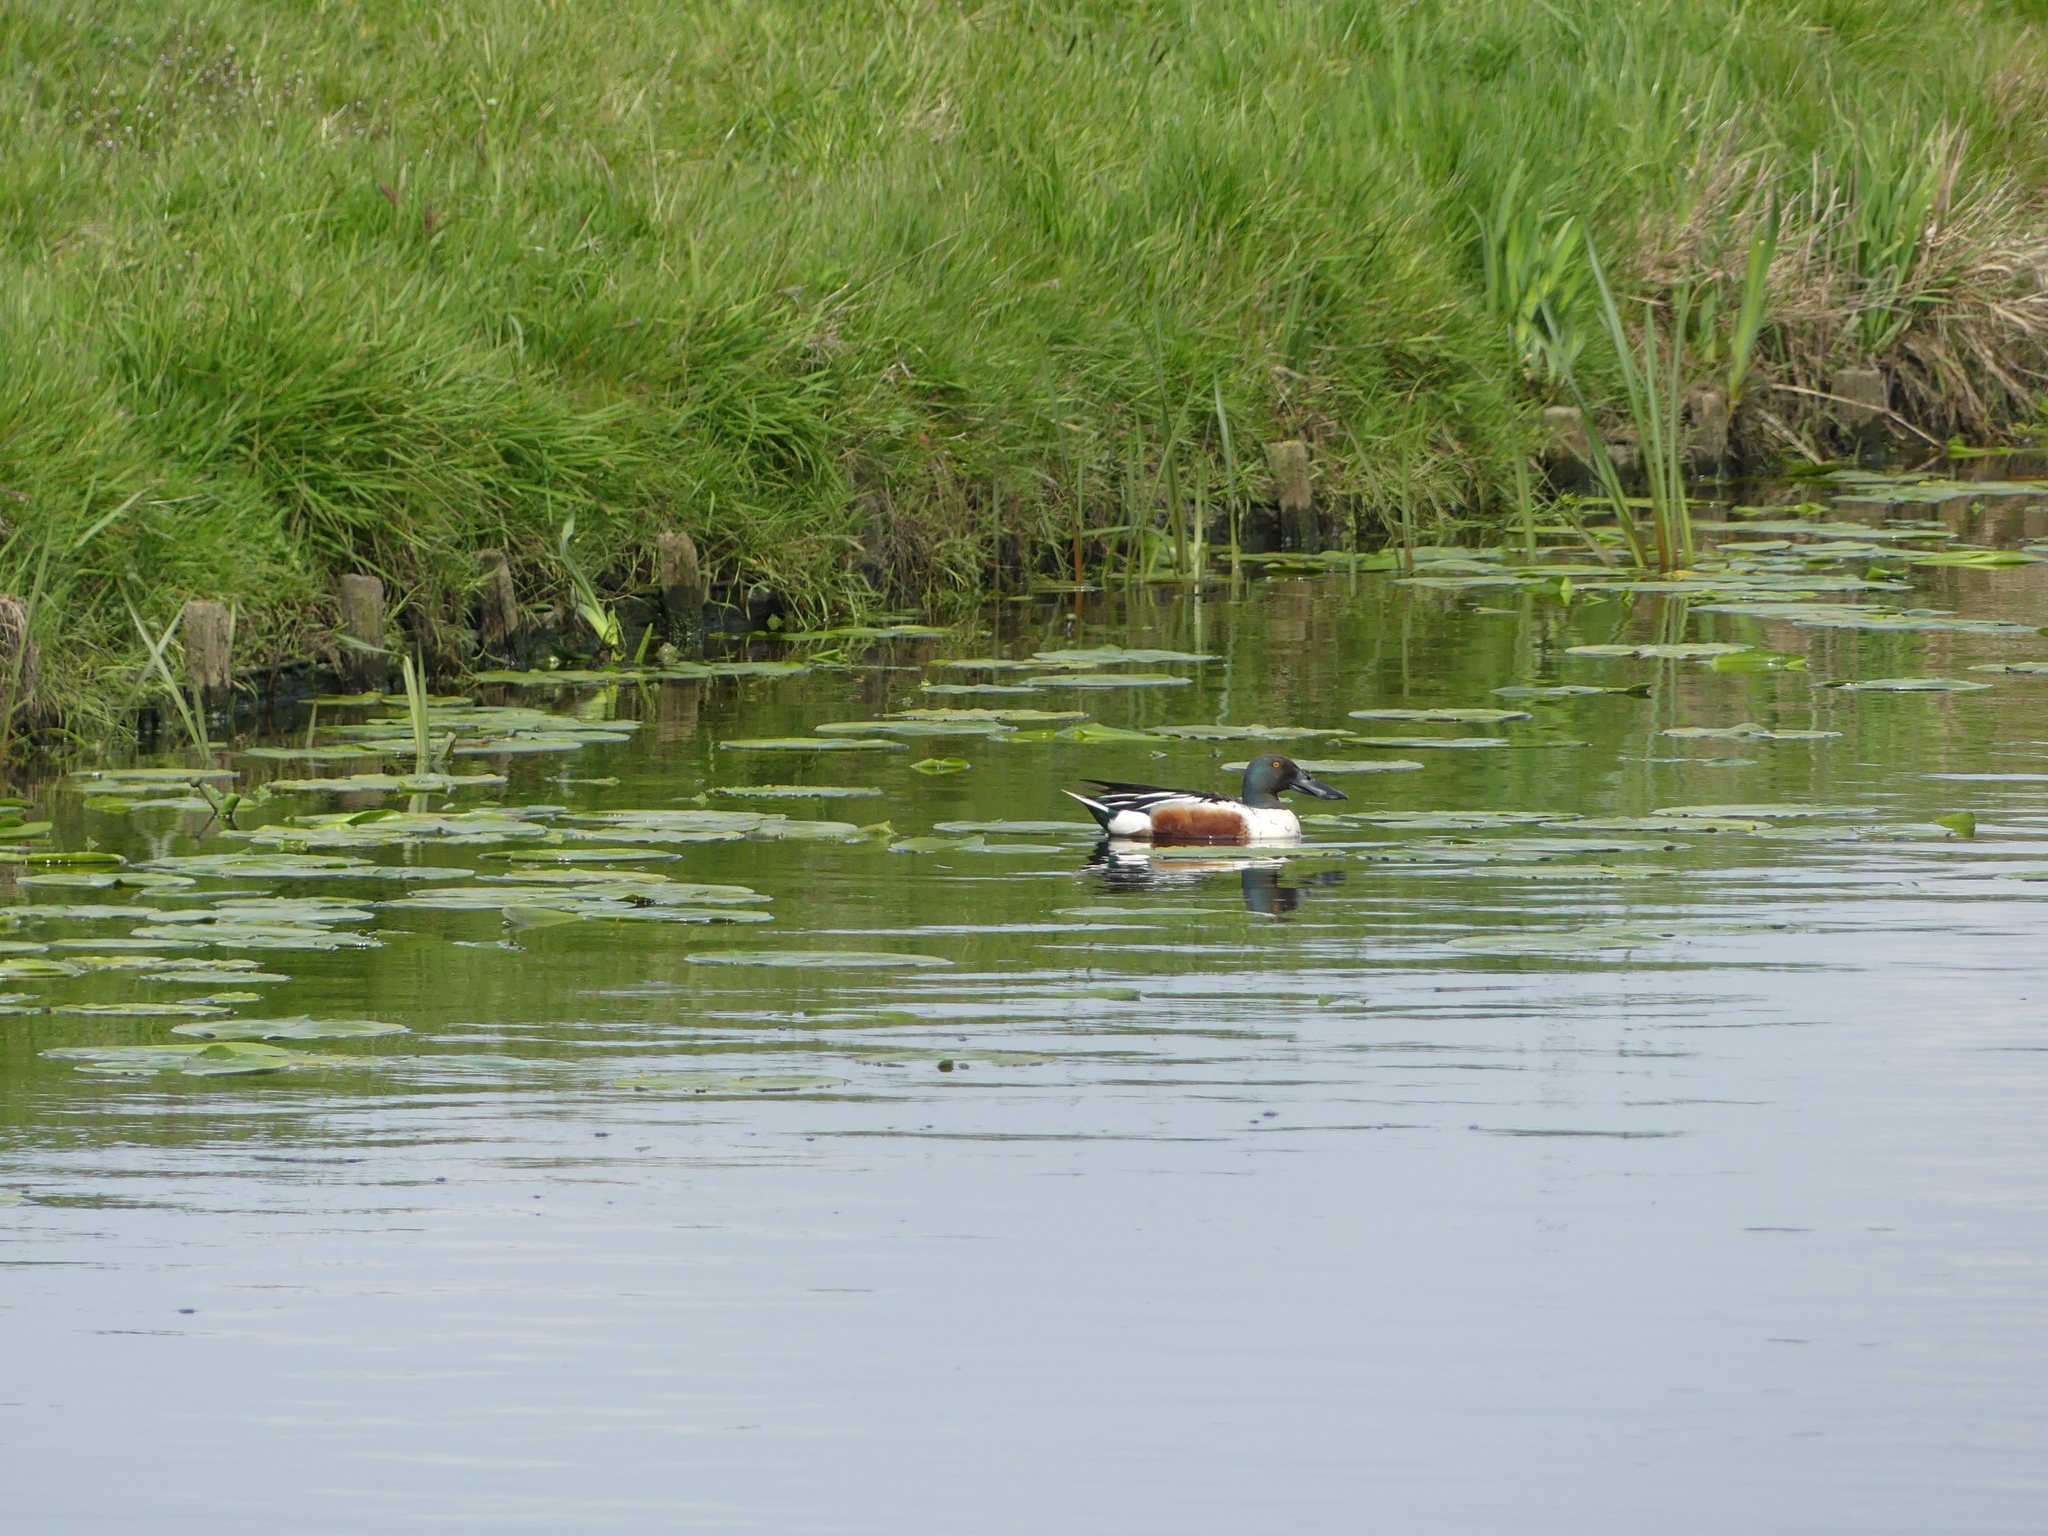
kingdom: Animalia
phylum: Chordata
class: Aves
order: Anseriformes
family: Anatidae
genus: Spatula
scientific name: Spatula clypeata
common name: Northern shoveler
